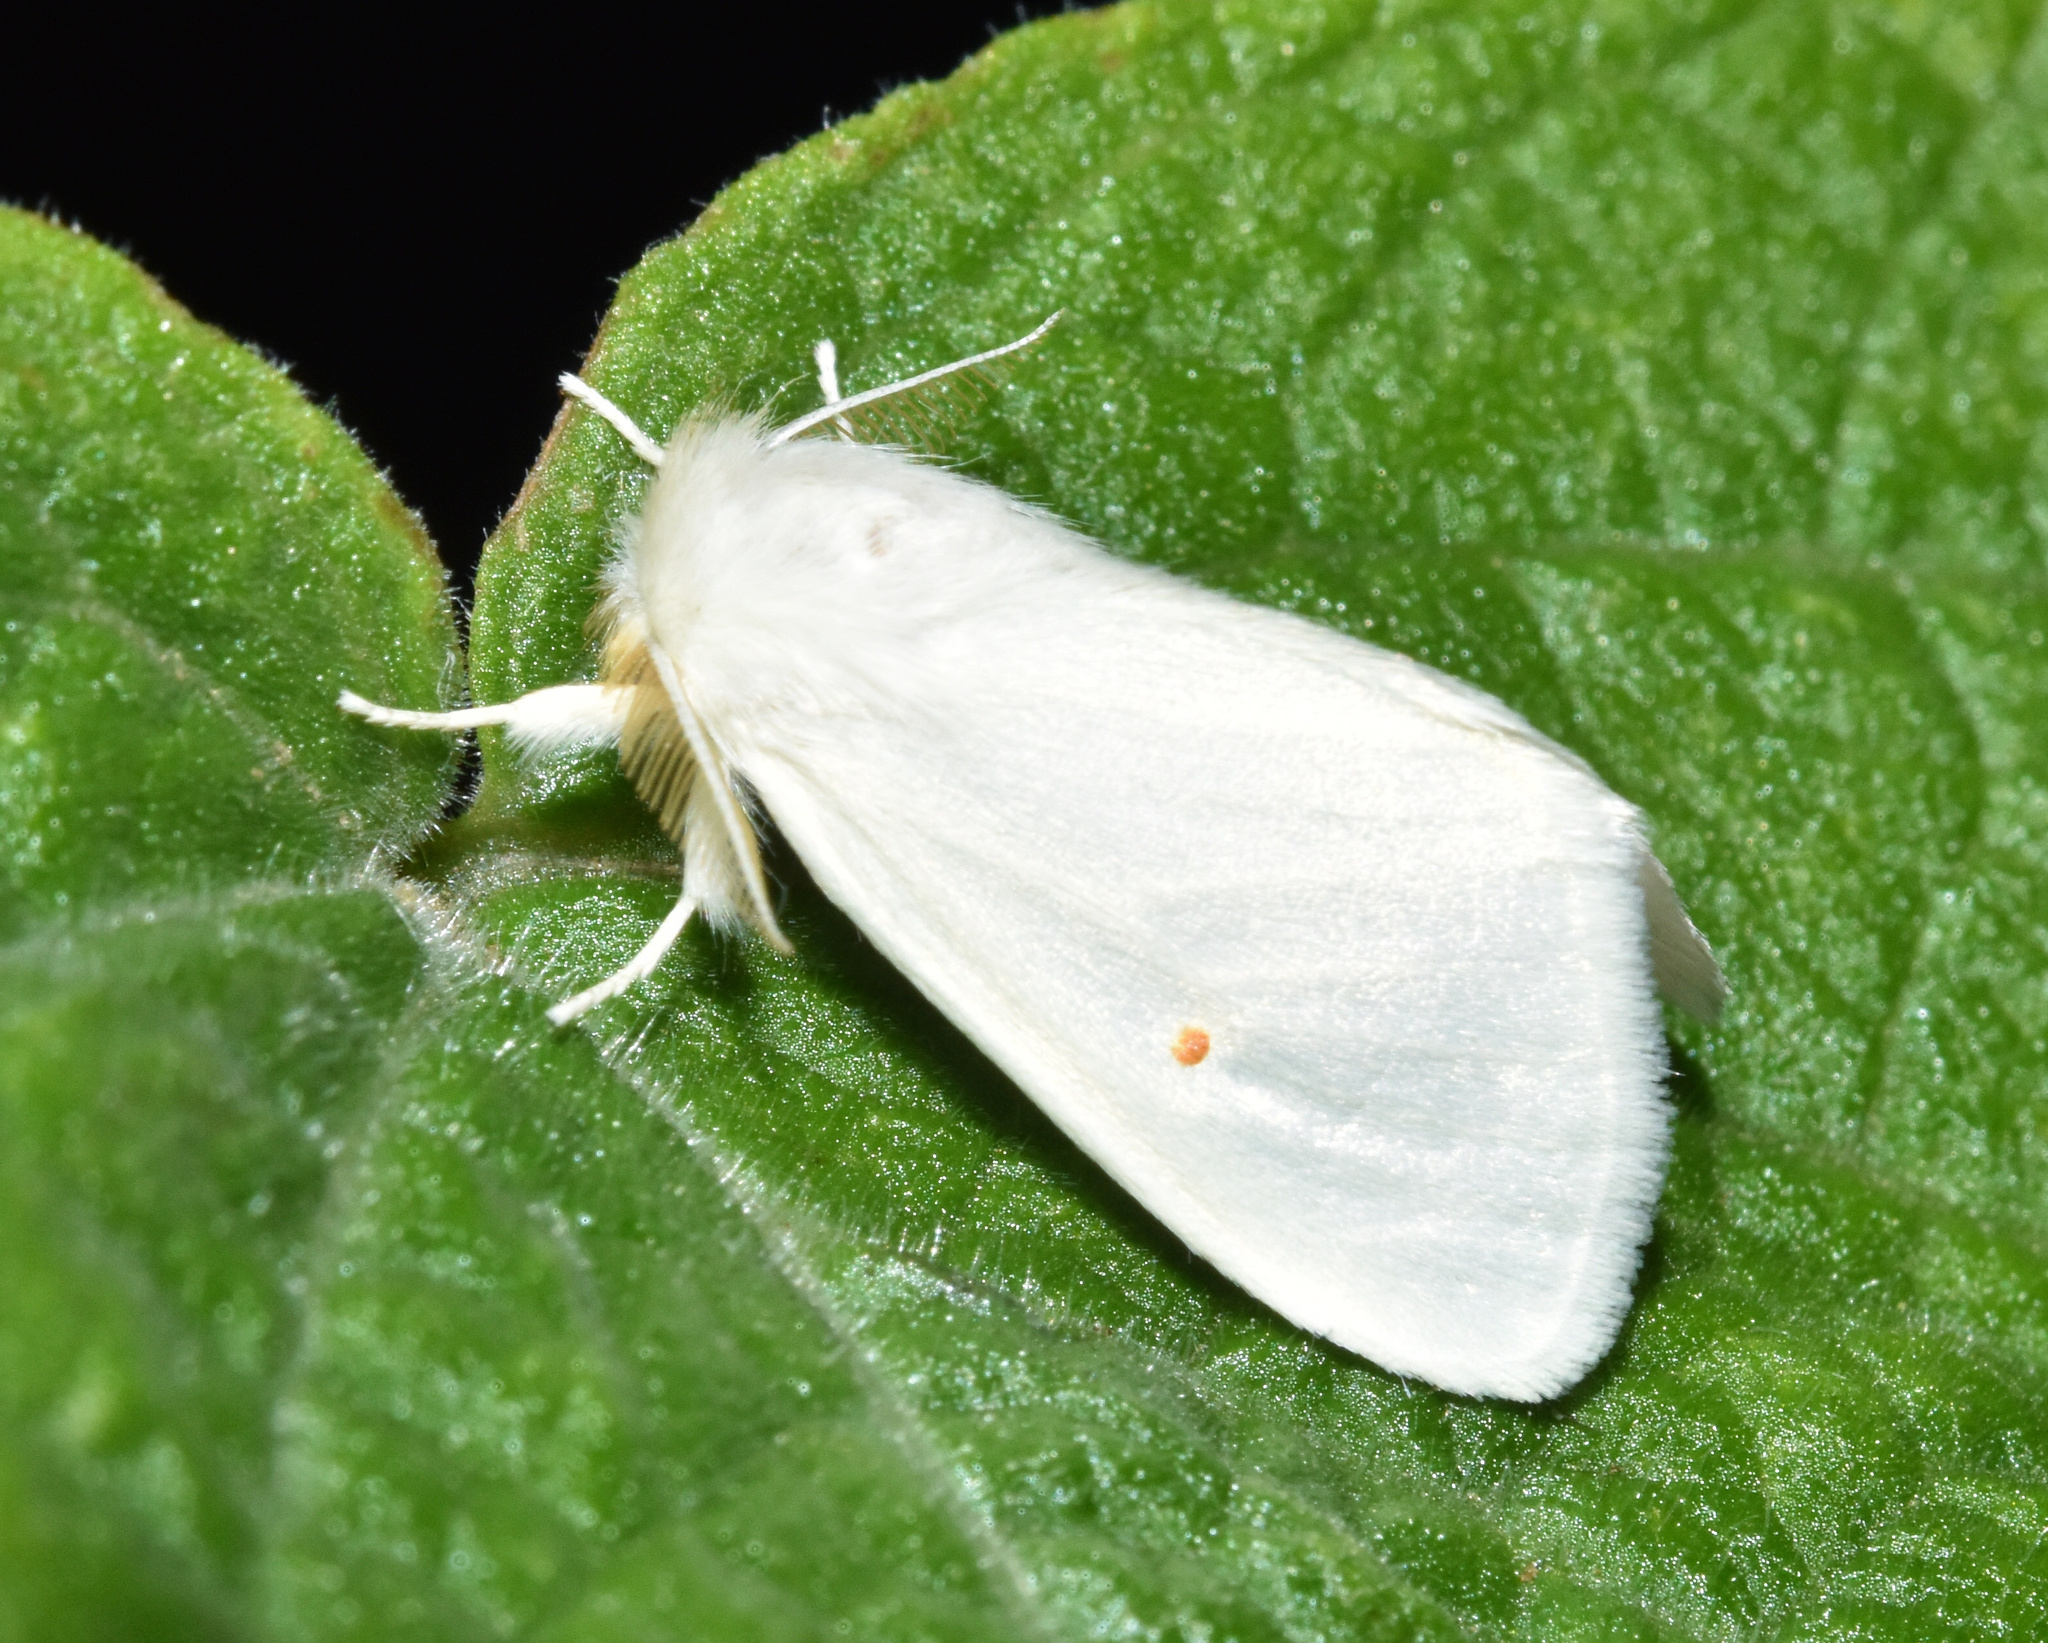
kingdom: Animalia
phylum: Arthropoda
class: Insecta
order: Lepidoptera
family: Erebidae
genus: Pteredoa
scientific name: Pteredoa monosticta
